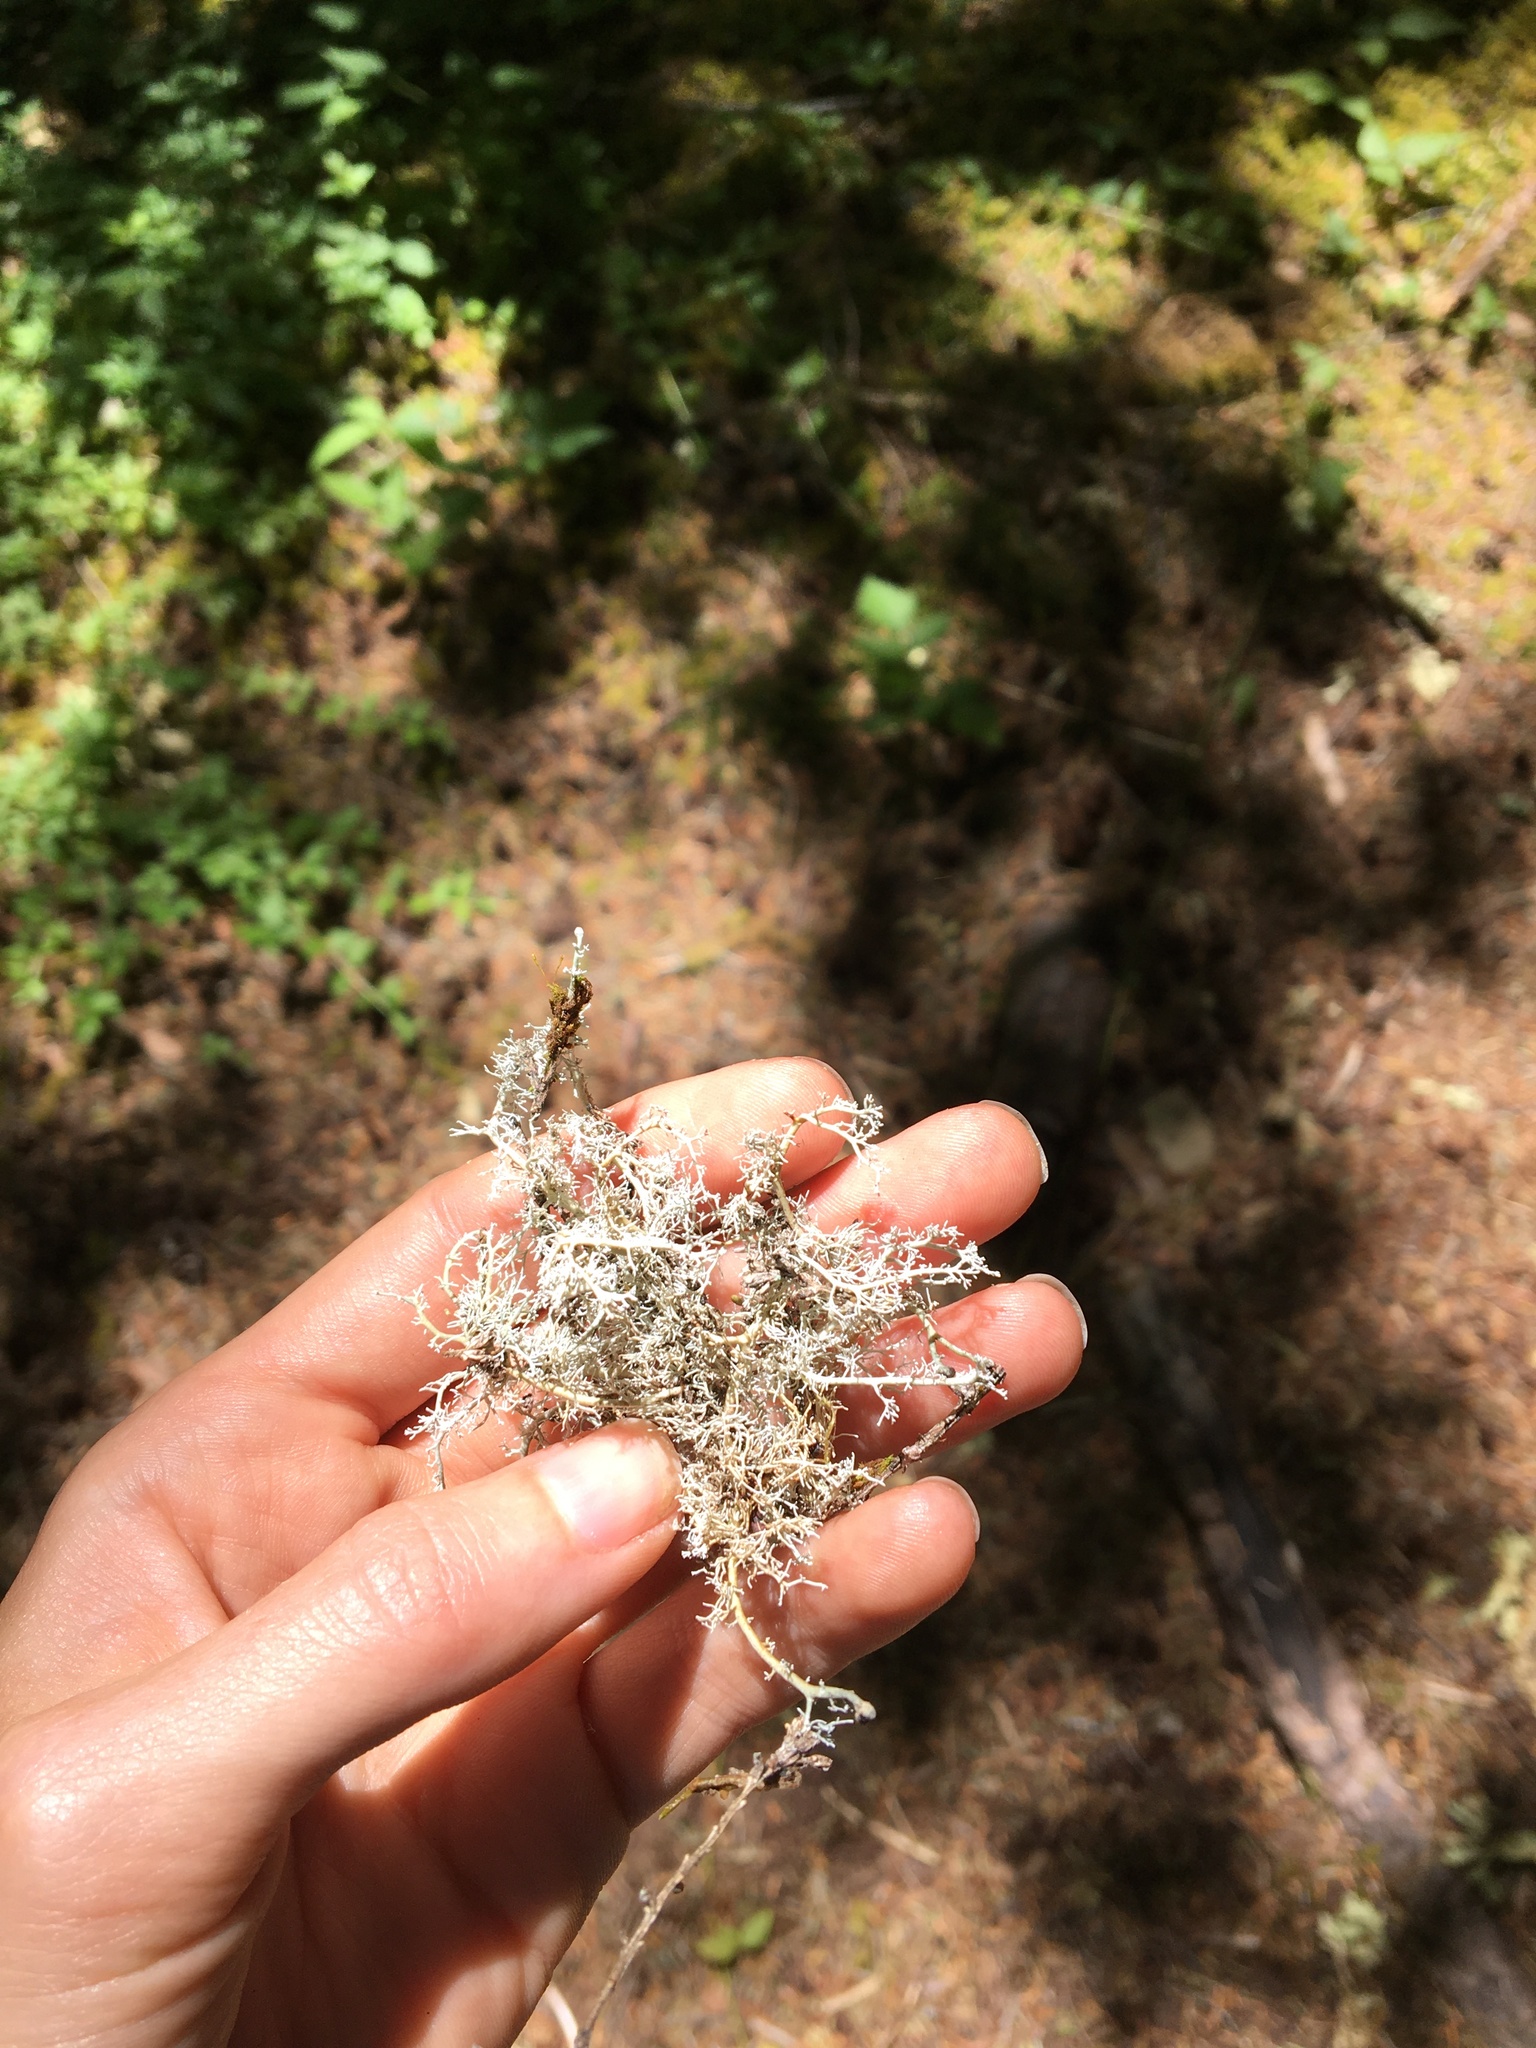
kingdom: Fungi
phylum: Ascomycota
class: Lecanoromycetes
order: Lecanorales
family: Sphaerophoraceae
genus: Sphaerophorus
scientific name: Sphaerophorus globosus
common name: Globe ball lichen
